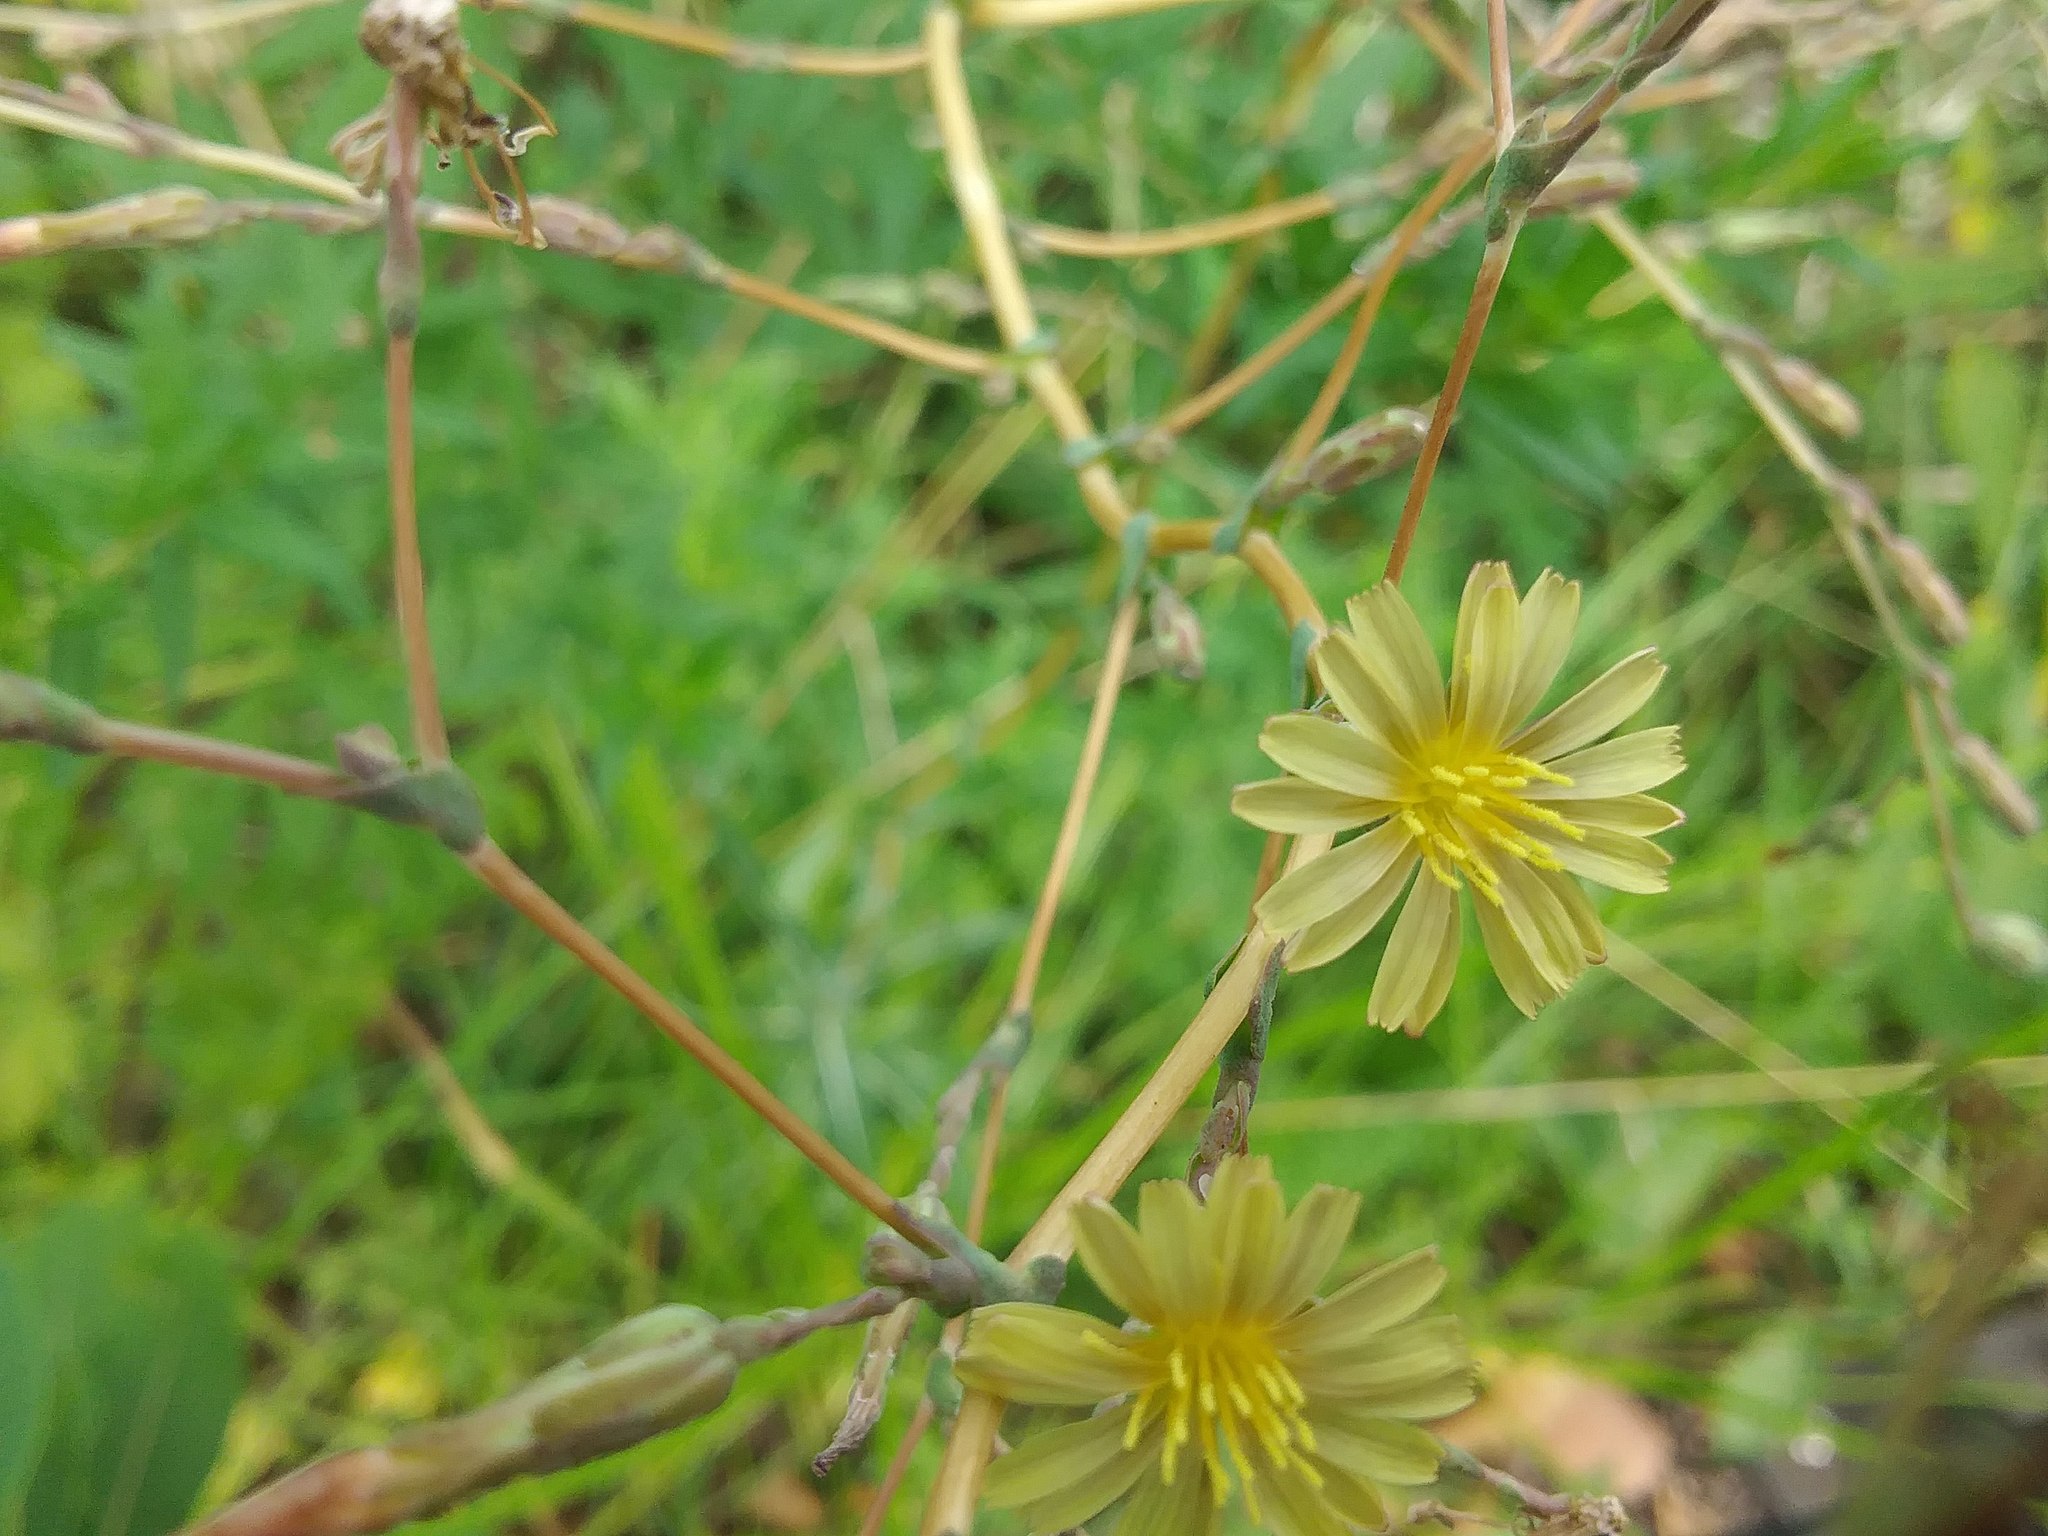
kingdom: Plantae
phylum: Tracheophyta
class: Magnoliopsida
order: Asterales
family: Asteraceae
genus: Lactuca
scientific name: Lactuca serriola
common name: Prickly lettuce
